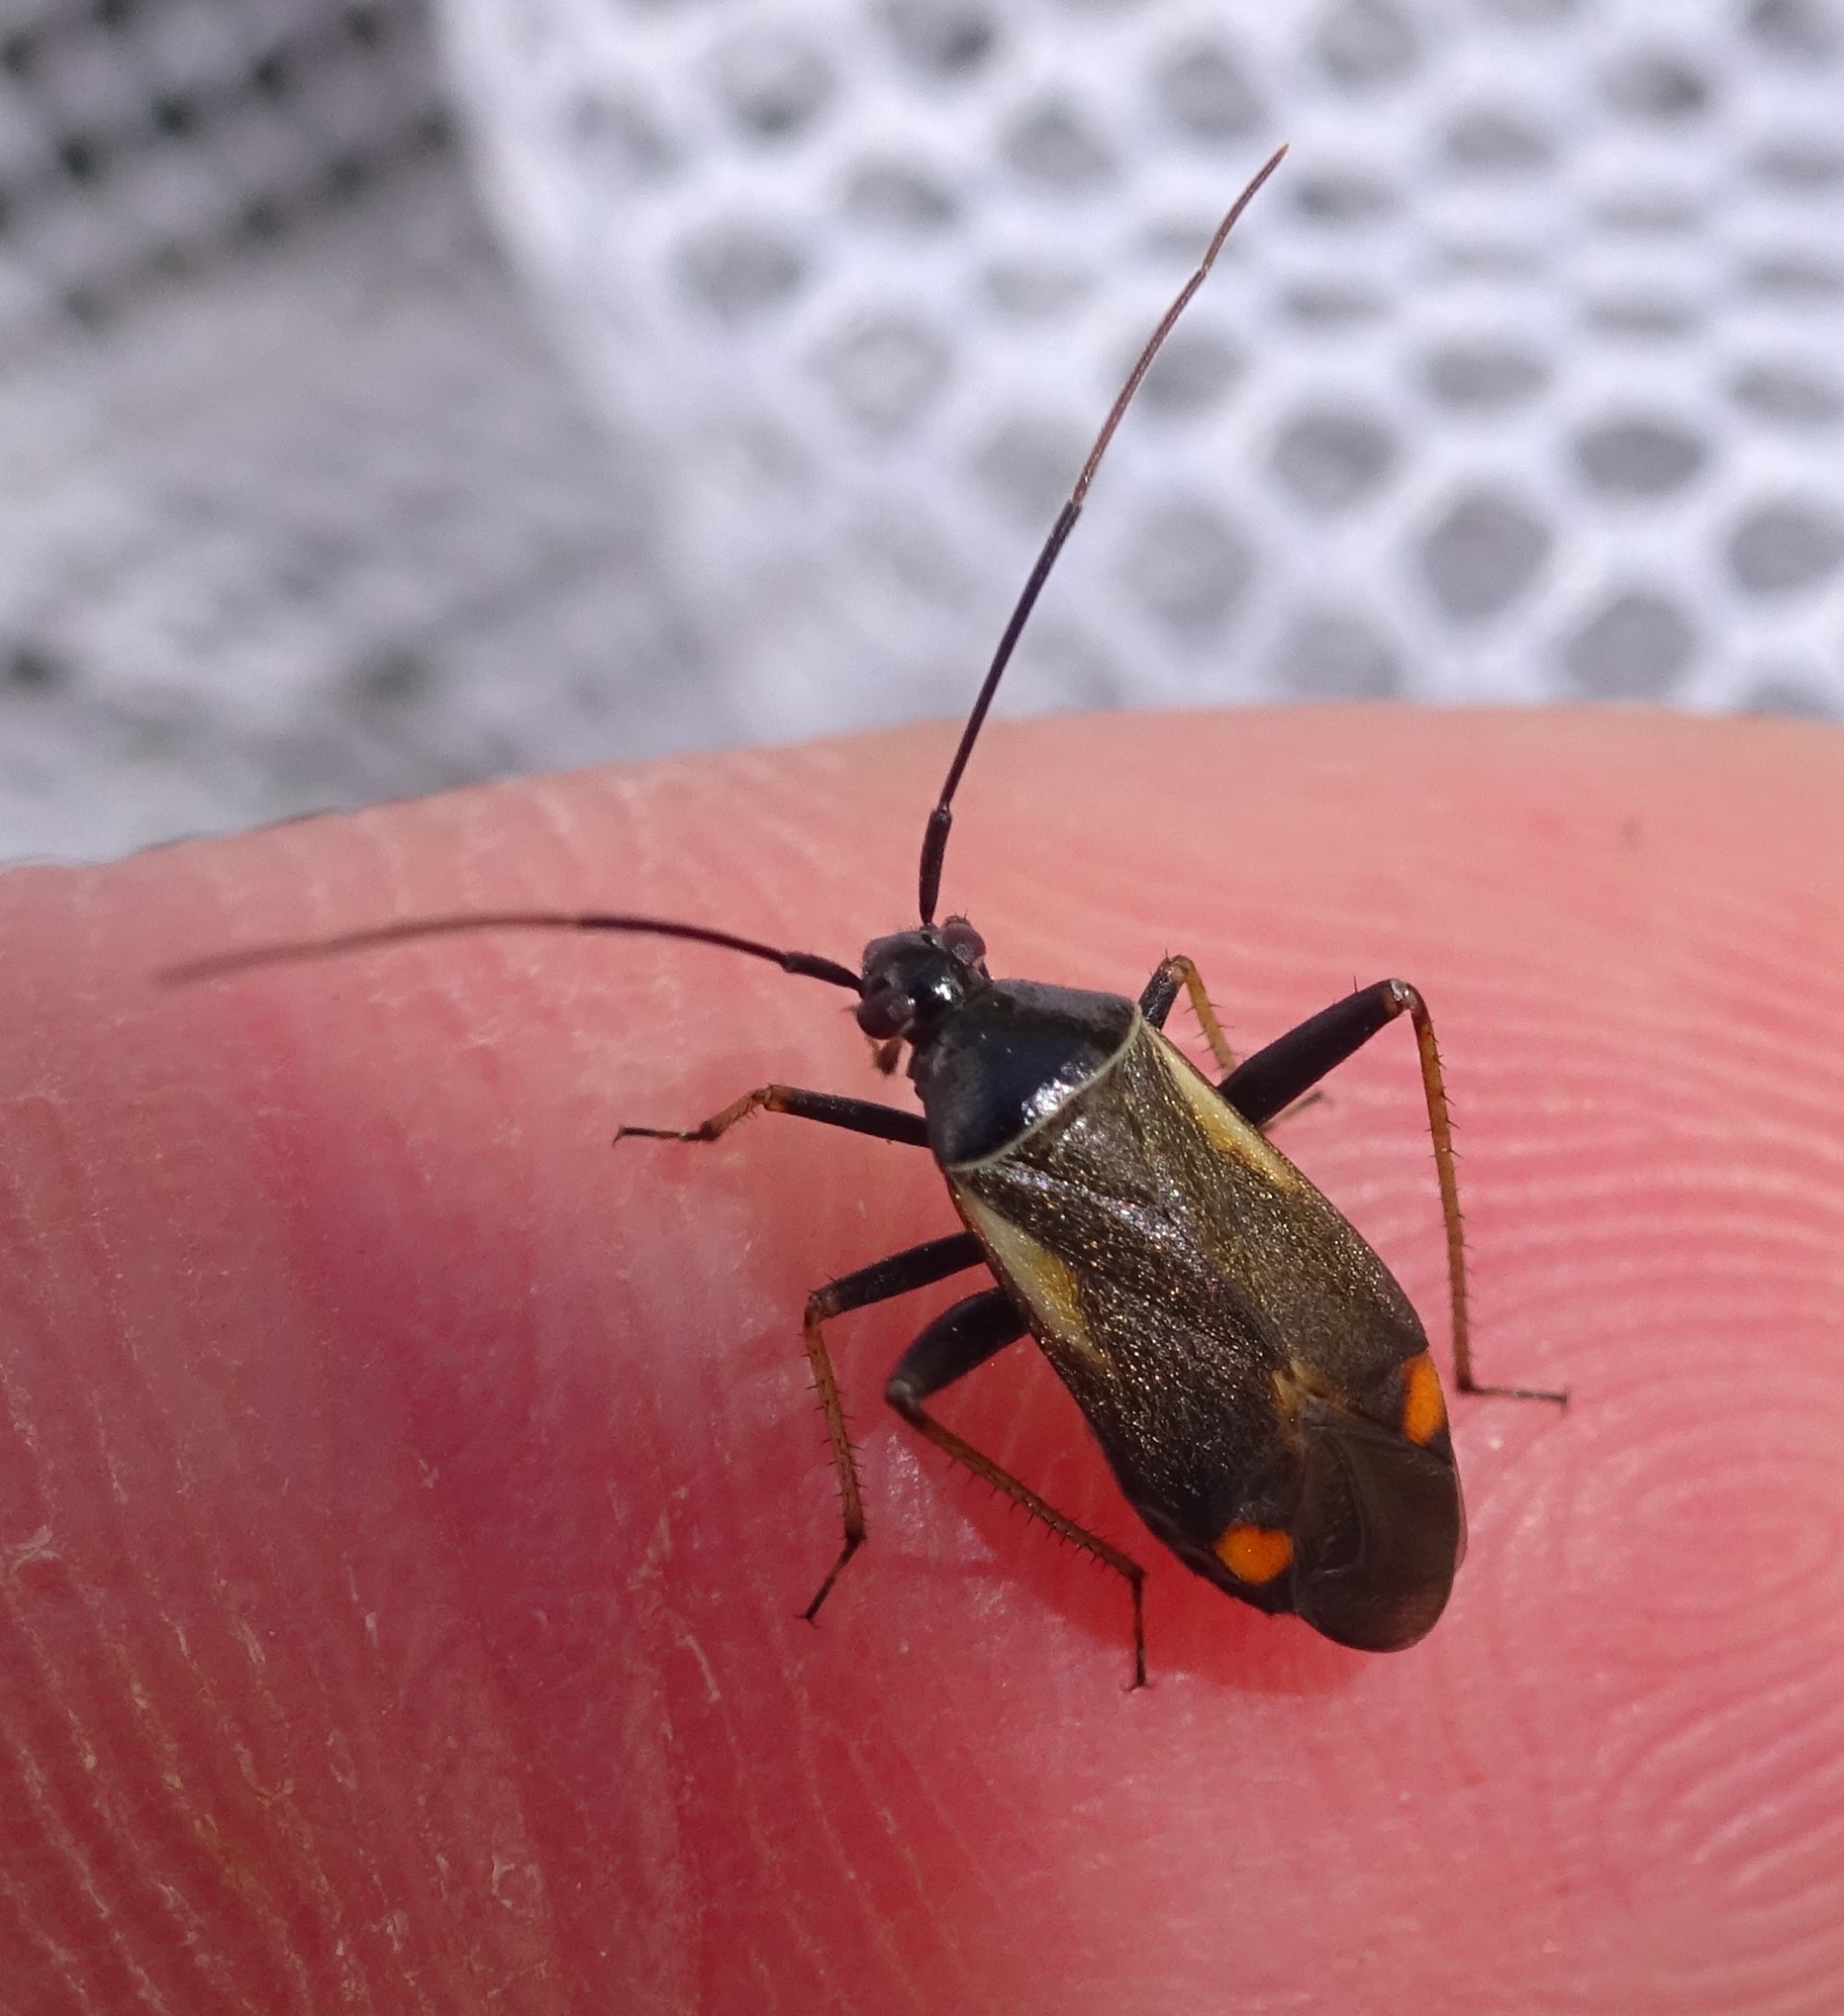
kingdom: Animalia
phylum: Arthropoda
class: Insecta
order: Hemiptera
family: Miridae
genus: Adelphocoris
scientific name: Adelphocoris seticornis
